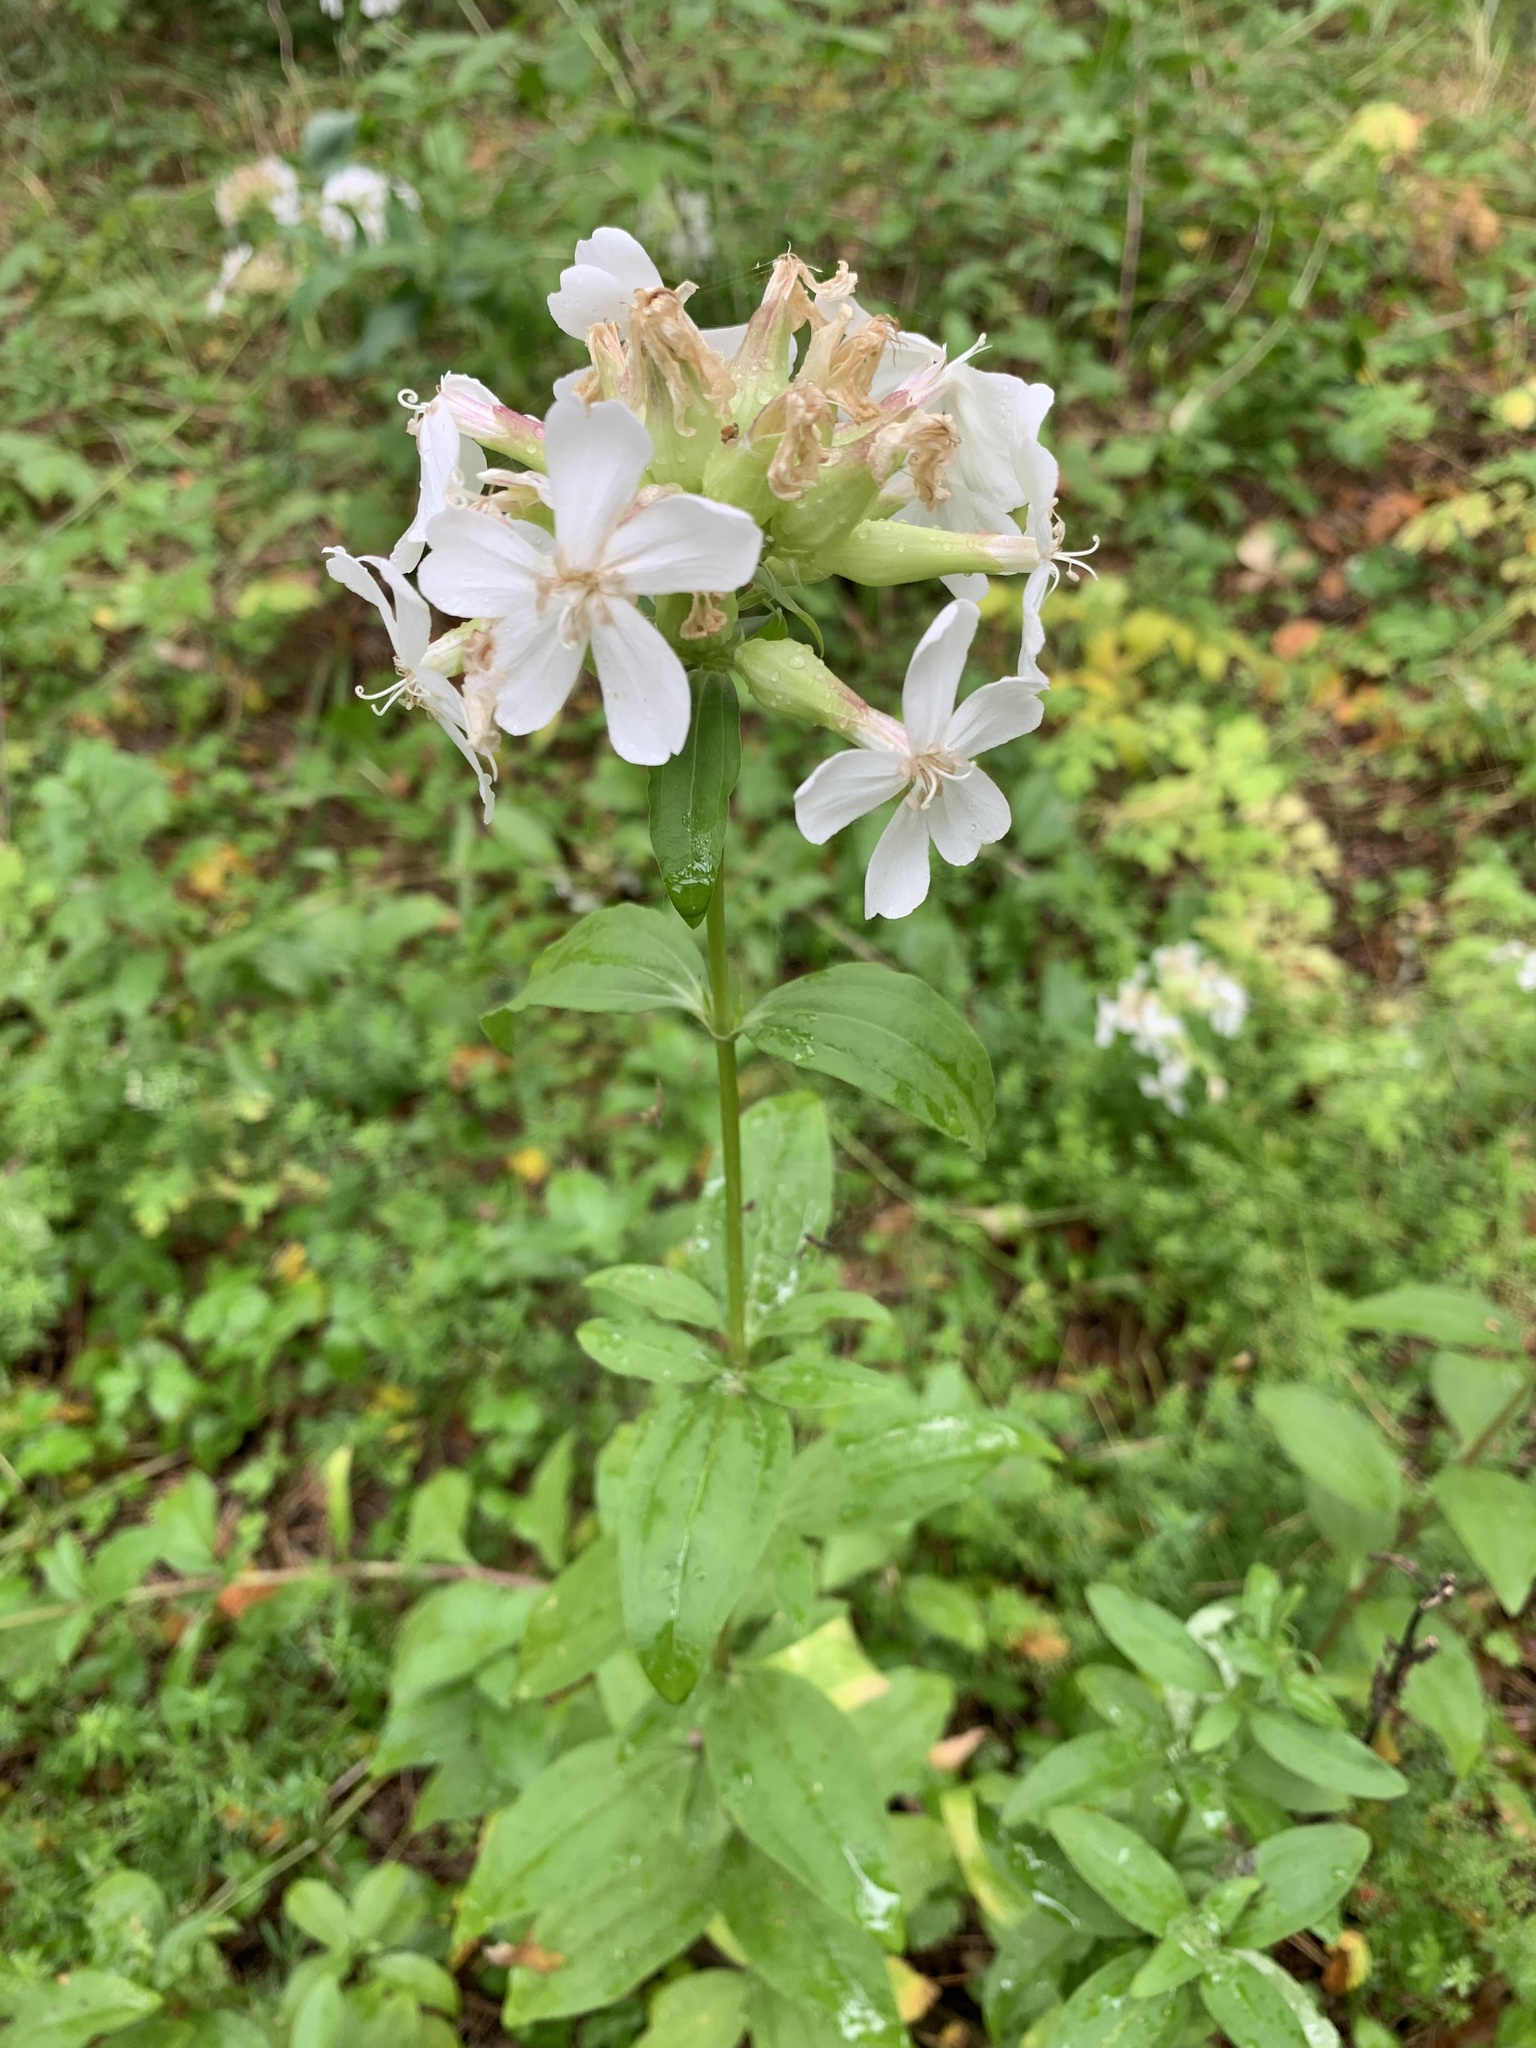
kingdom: Plantae
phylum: Tracheophyta
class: Magnoliopsida
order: Caryophyllales
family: Caryophyllaceae
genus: Saponaria
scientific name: Saponaria officinalis
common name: Soapwort
